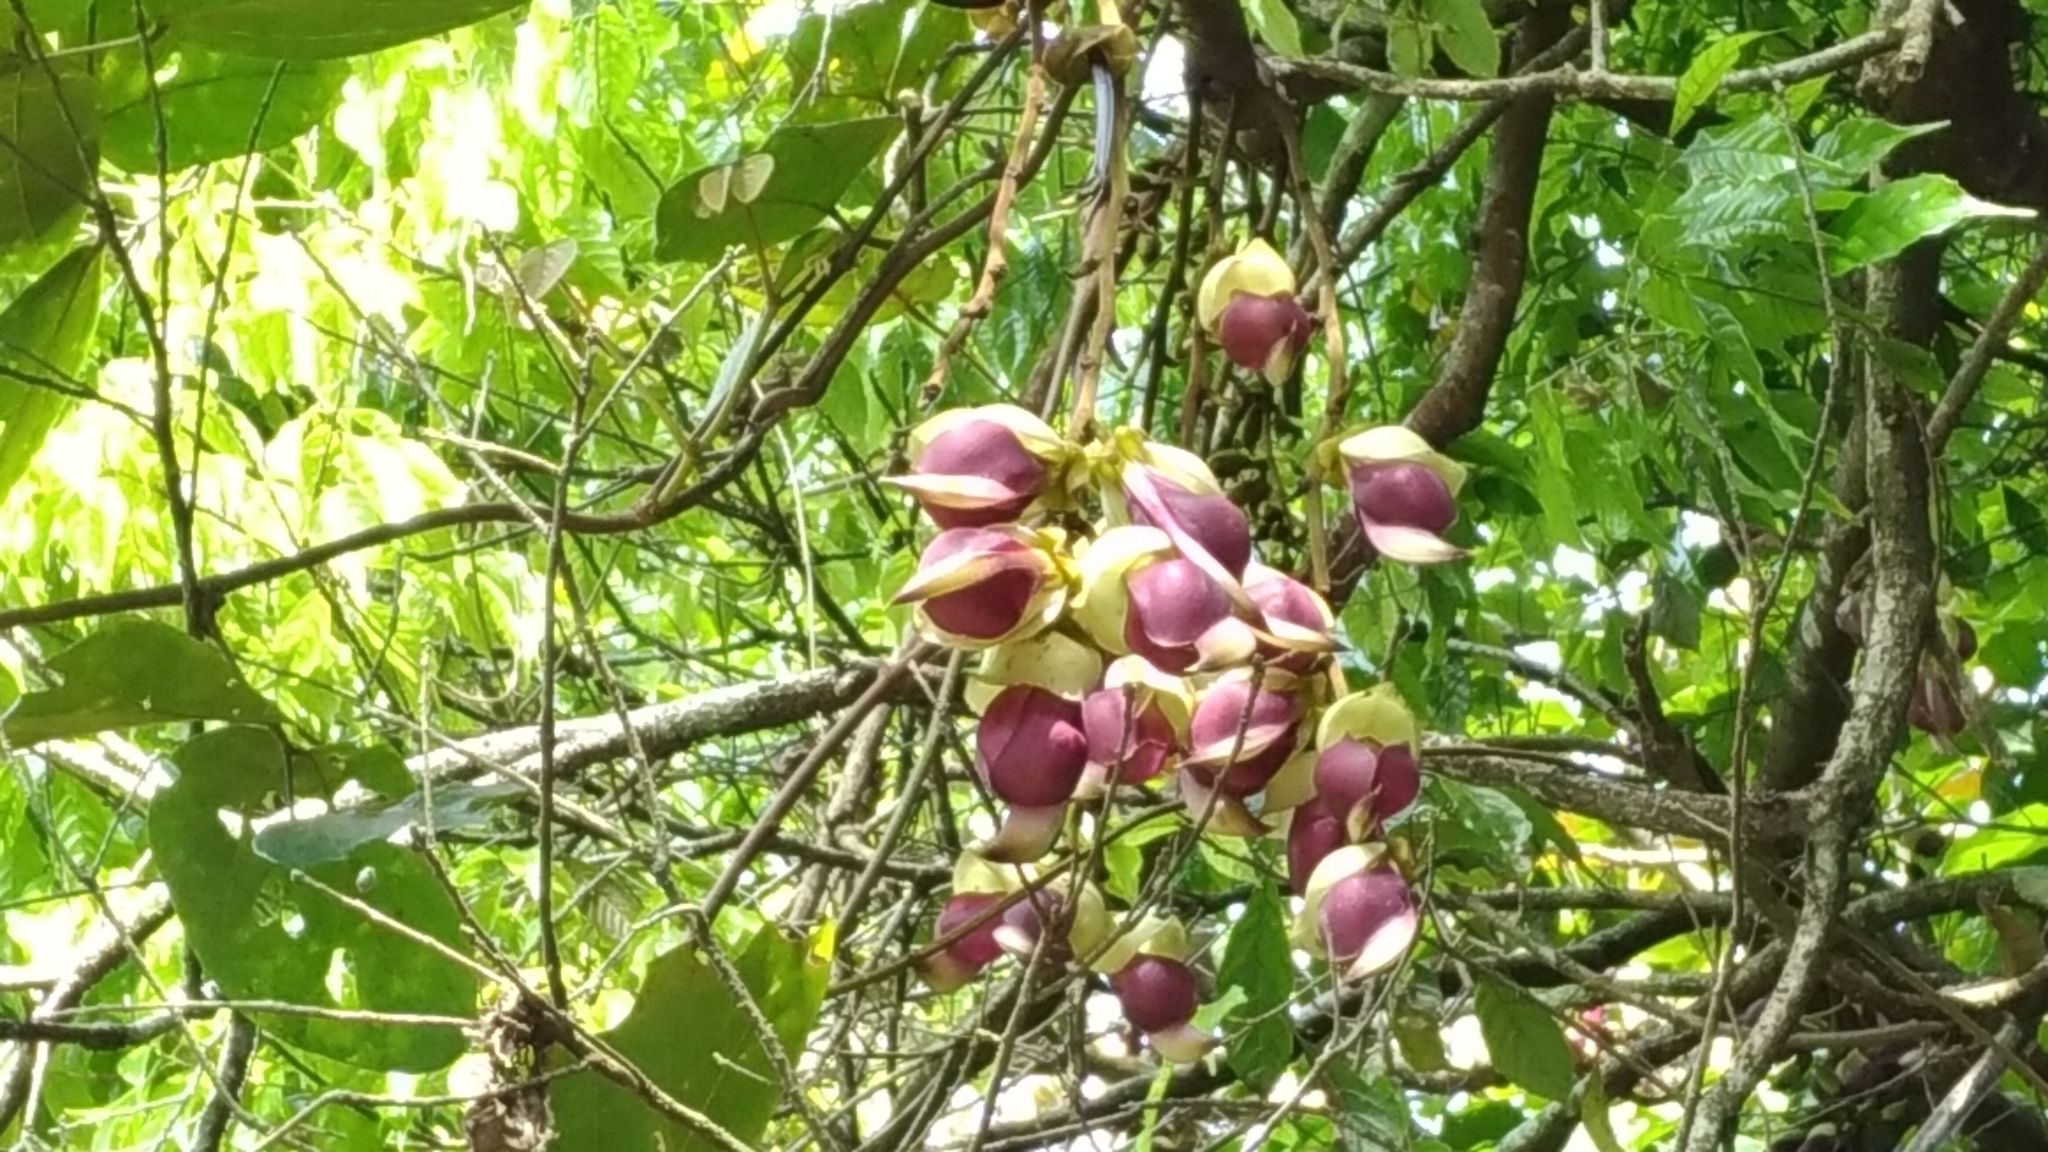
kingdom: Plantae
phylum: Tracheophyta
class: Magnoliopsida
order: Fabales
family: Fabaceae
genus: Mucuna
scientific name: Mucuna macrocarpa
